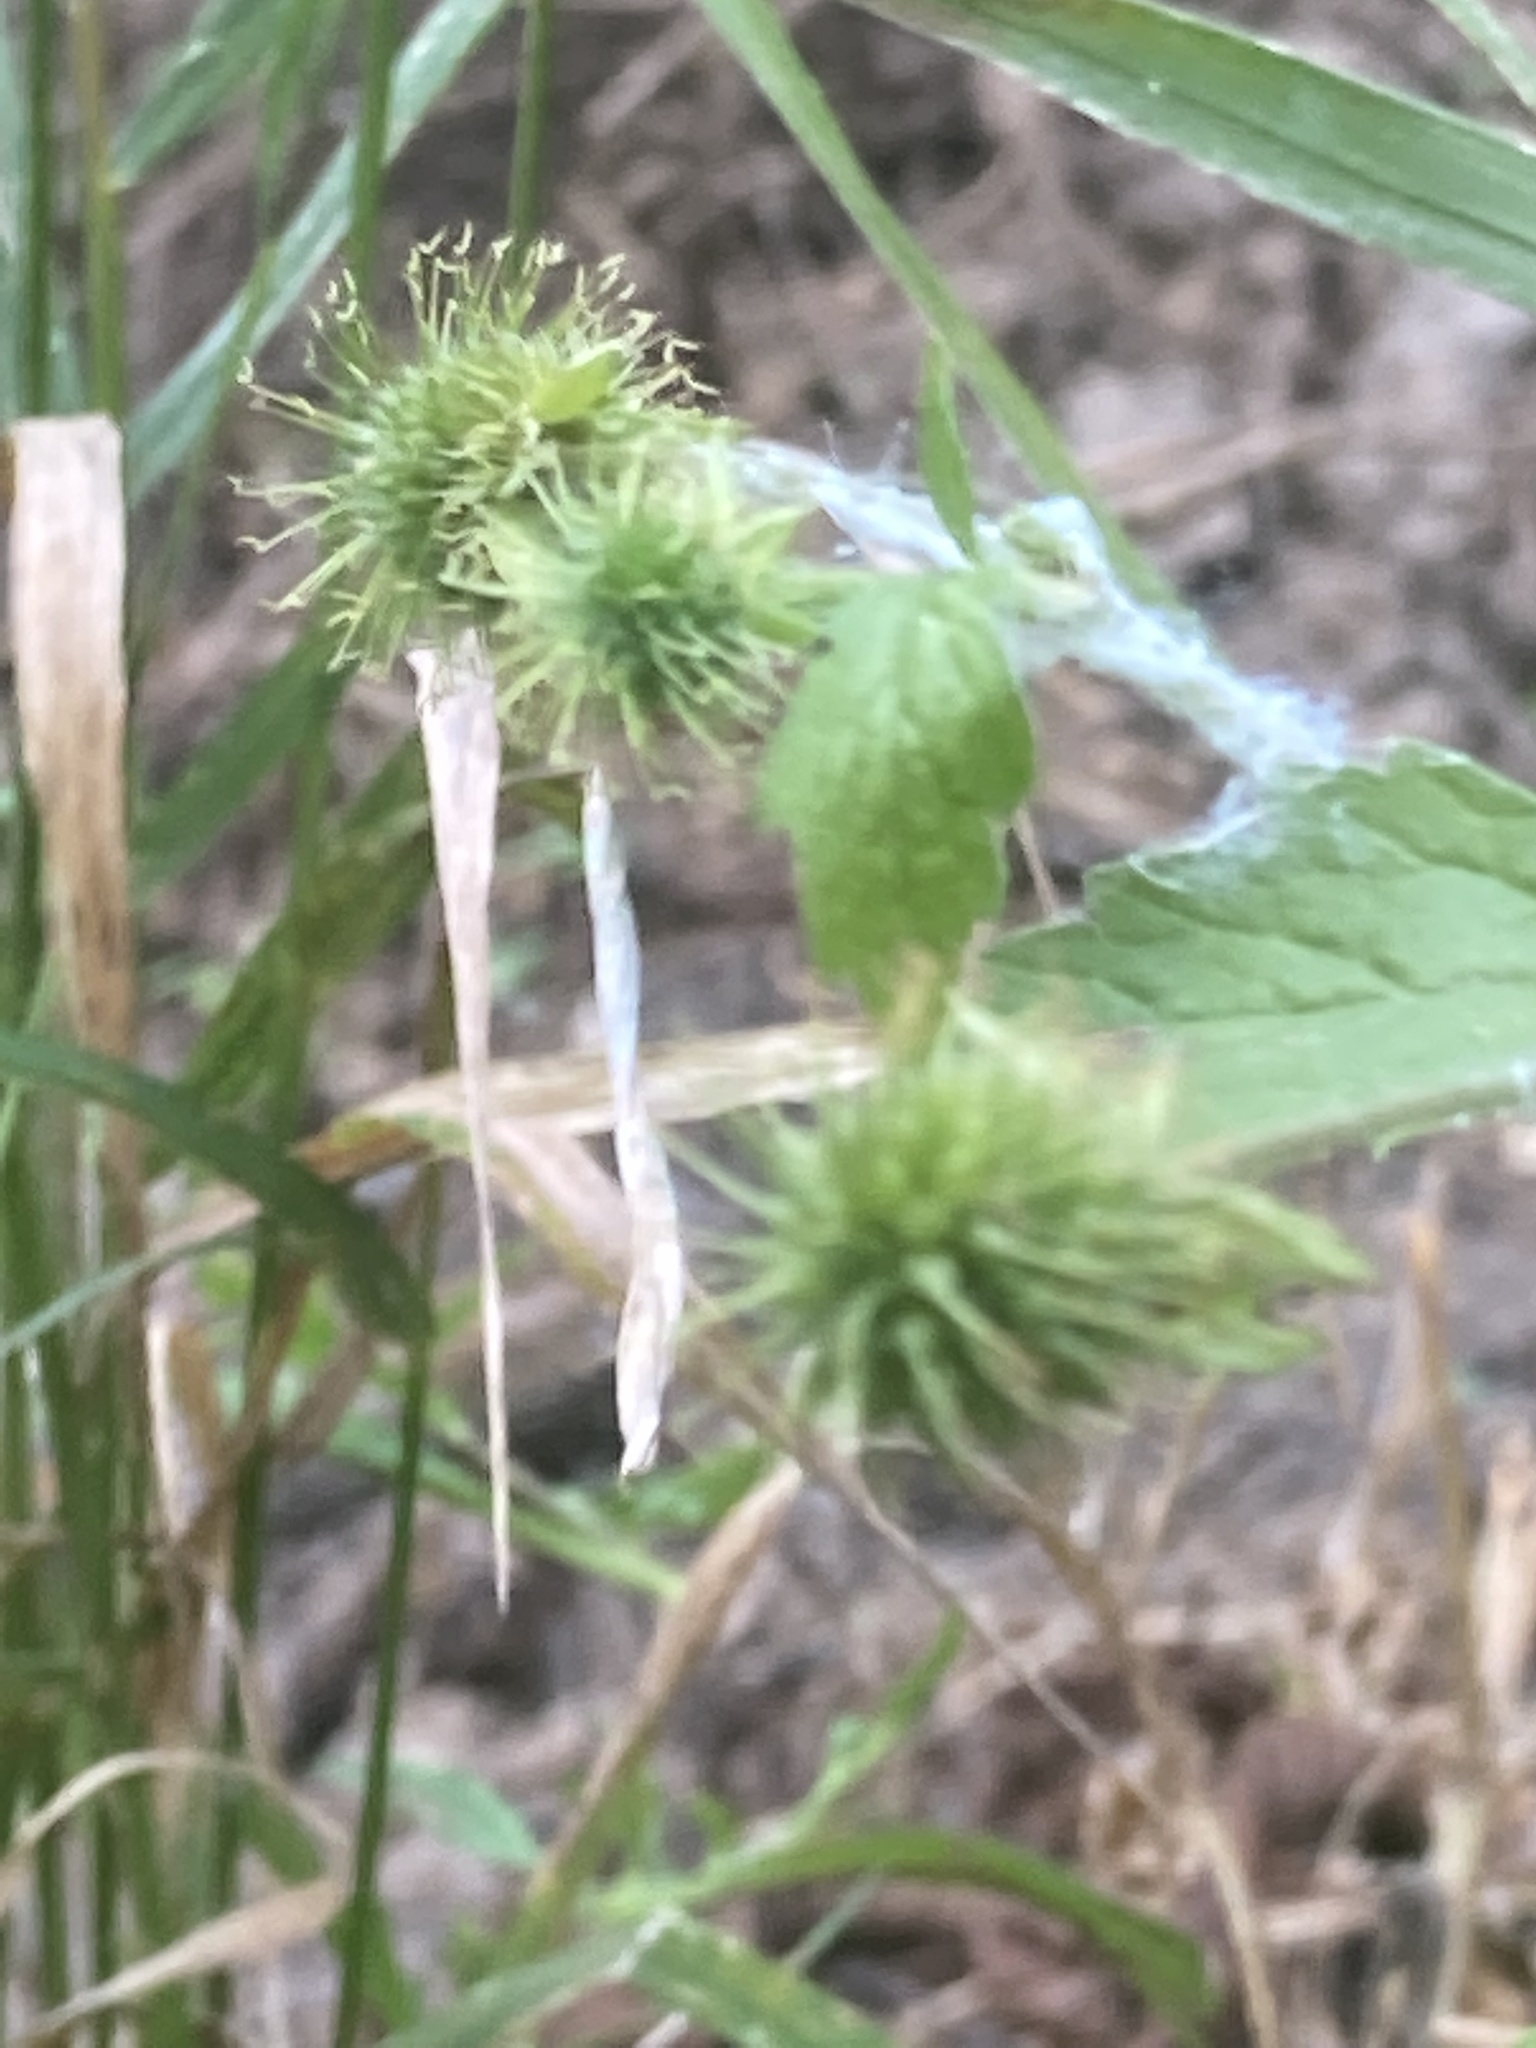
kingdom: Plantae
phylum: Tracheophyta
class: Magnoliopsida
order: Rosales
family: Rosaceae
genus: Geum
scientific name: Geum canadense
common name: White avens
